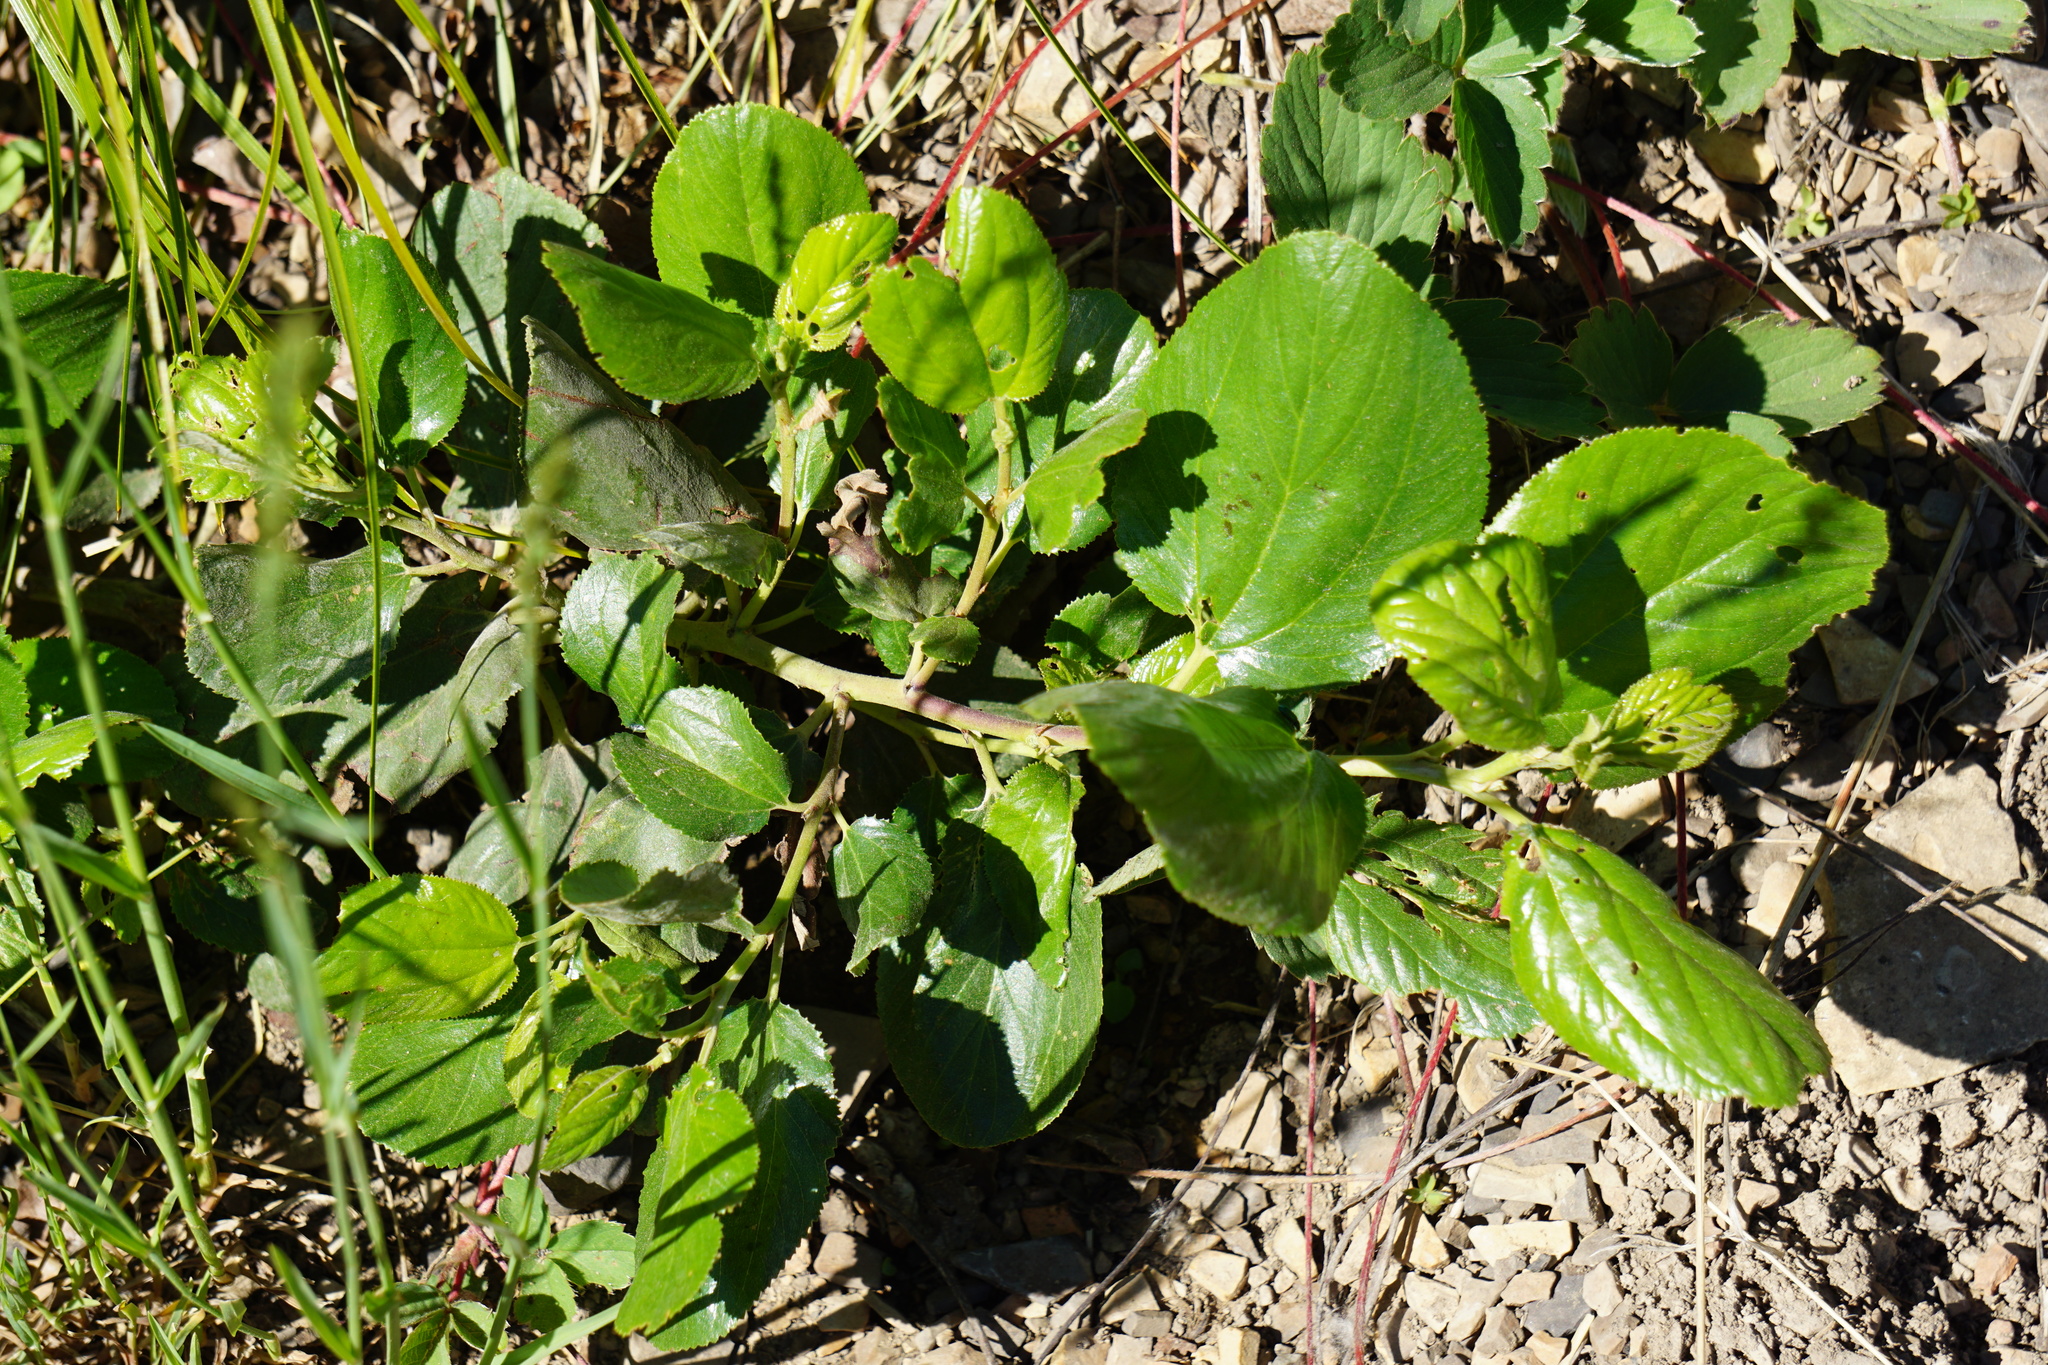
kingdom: Plantae
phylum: Tracheophyta
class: Magnoliopsida
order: Rosales
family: Rhamnaceae
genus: Ceanothus
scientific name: Ceanothus velutinus
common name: Snowbrush
